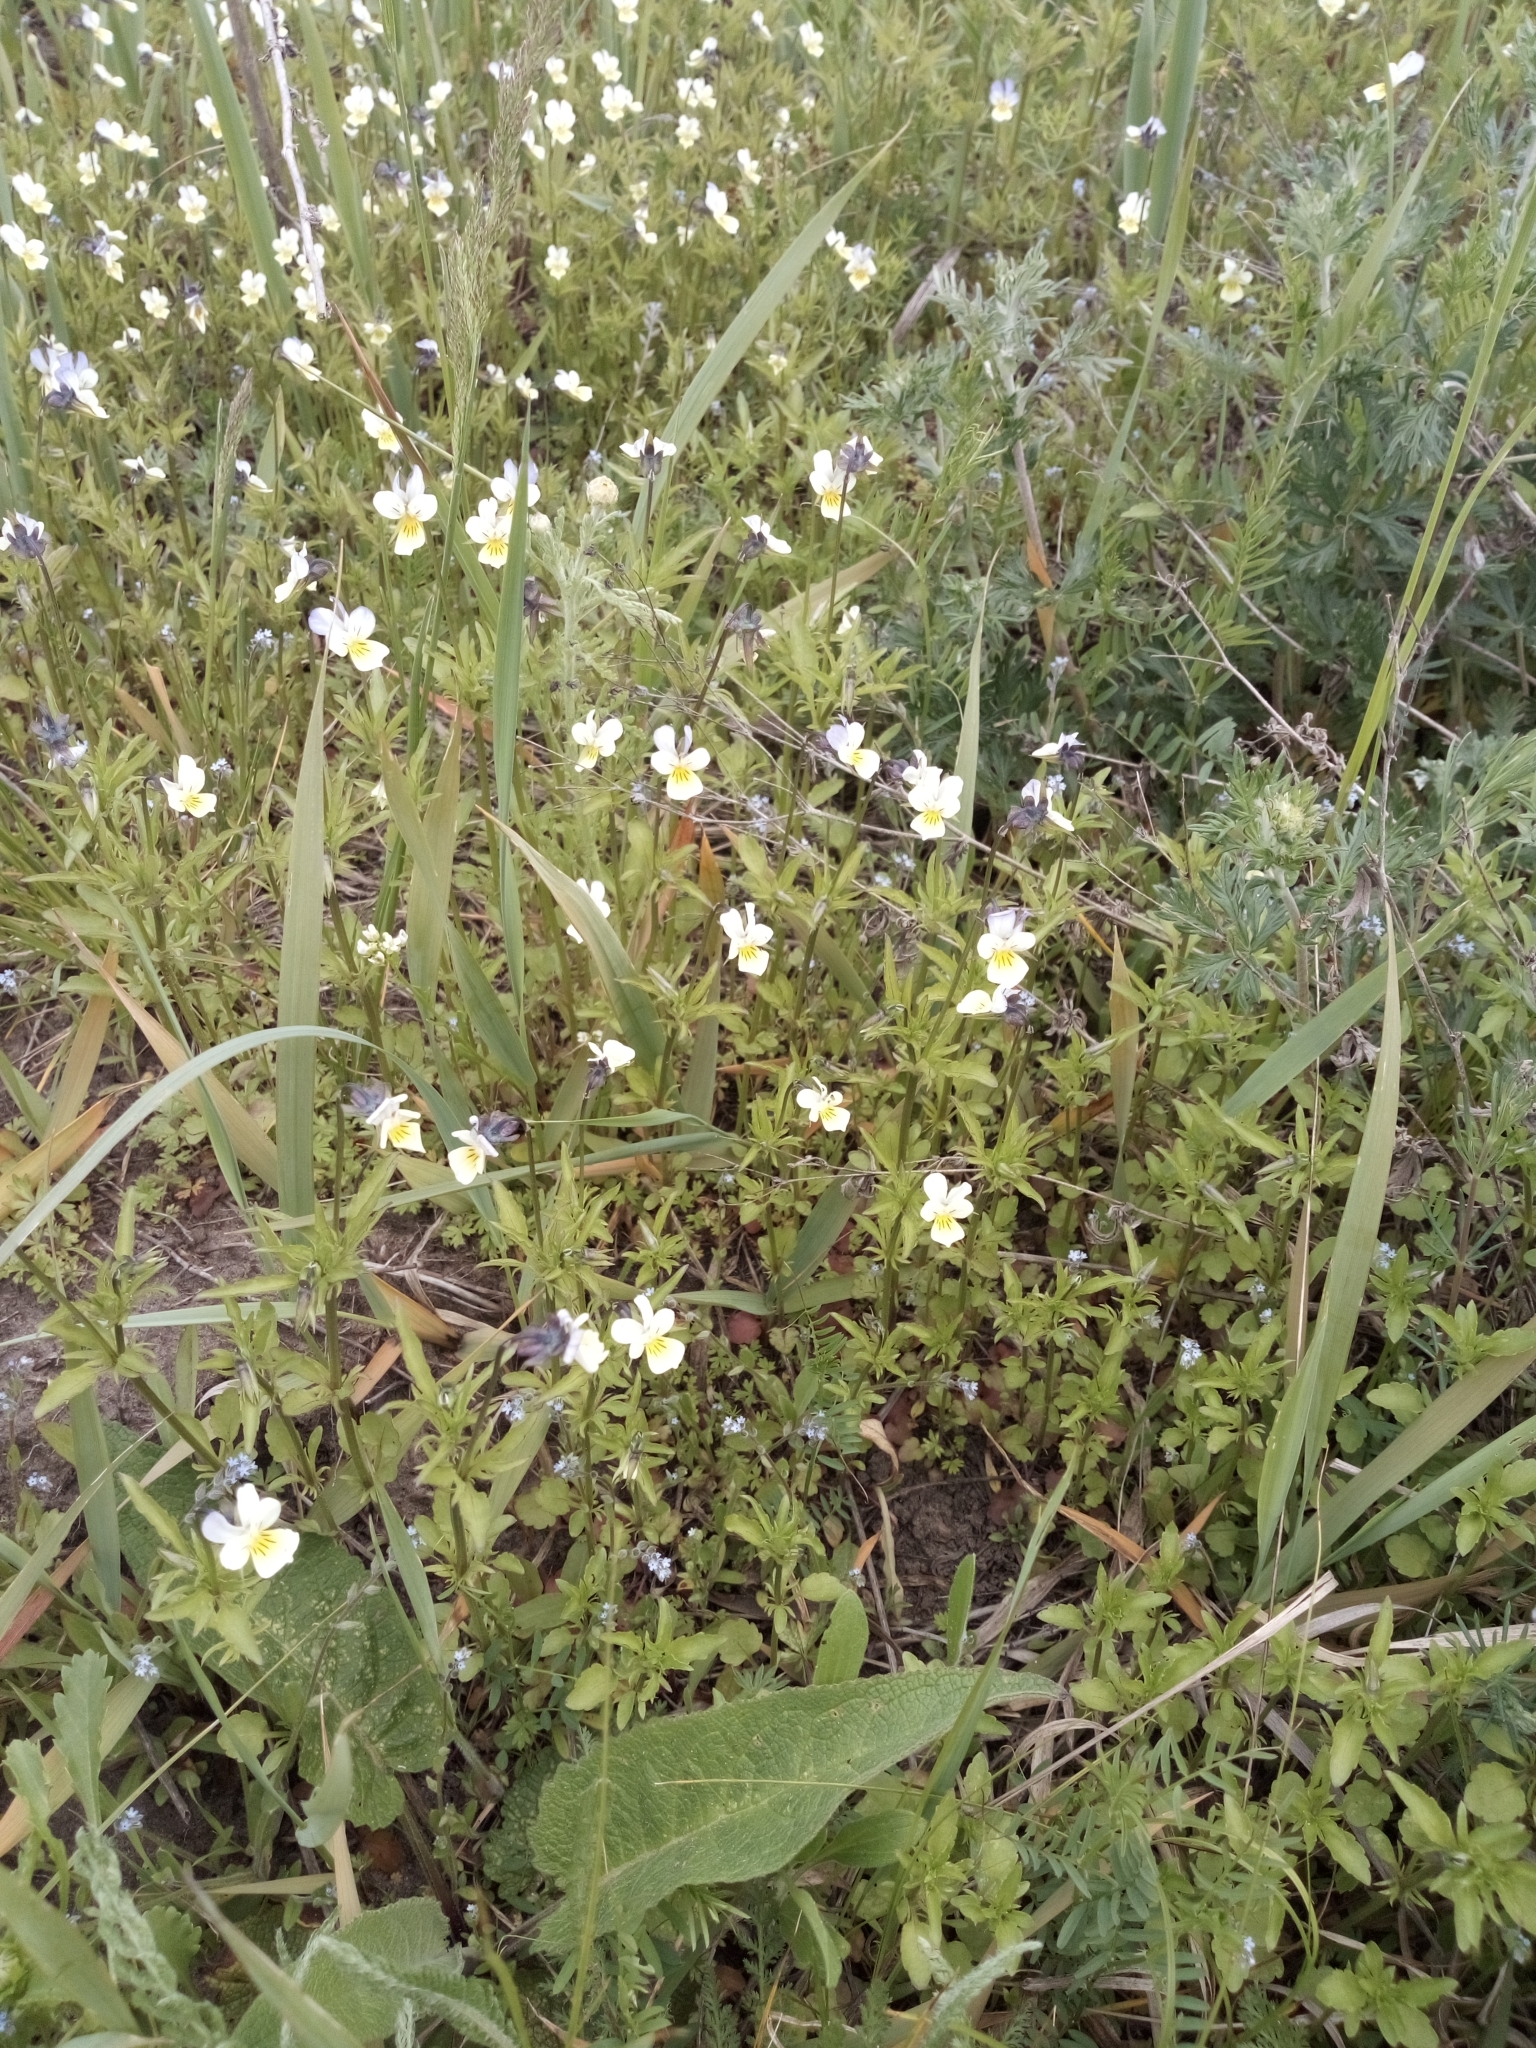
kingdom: Plantae
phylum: Tracheophyta
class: Magnoliopsida
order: Malpighiales
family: Violaceae
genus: Viola
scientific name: Viola arvensis
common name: Field pansy
